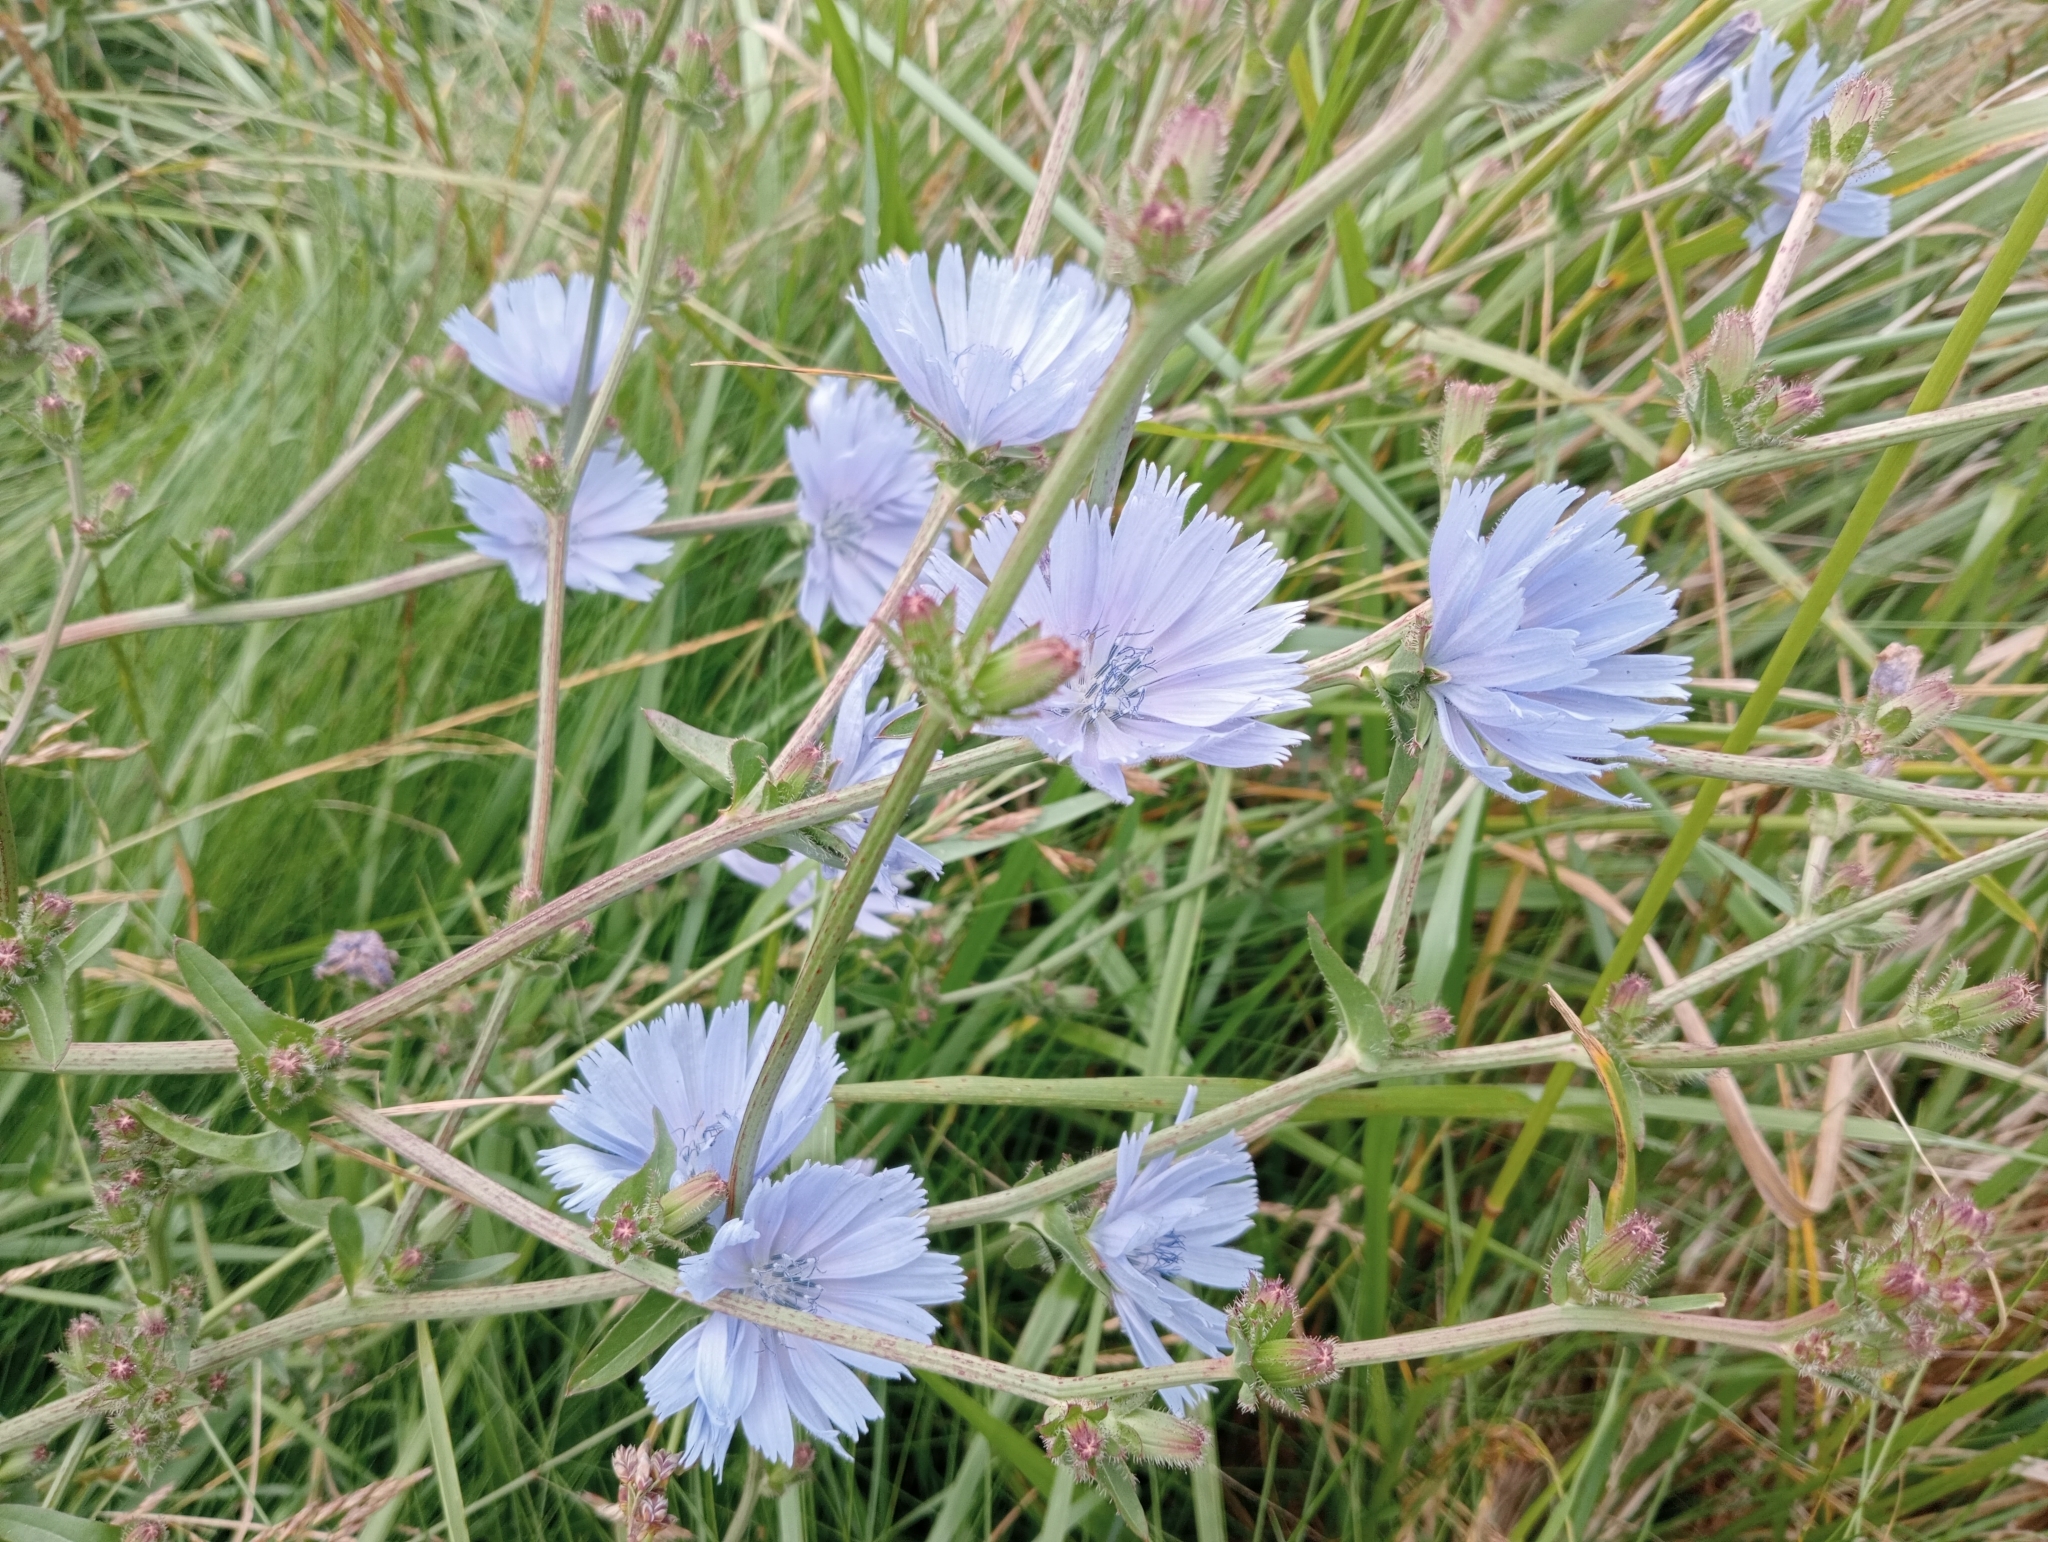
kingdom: Plantae
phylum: Tracheophyta
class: Magnoliopsida
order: Asterales
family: Asteraceae
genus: Cichorium
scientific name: Cichorium intybus
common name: Chicory
